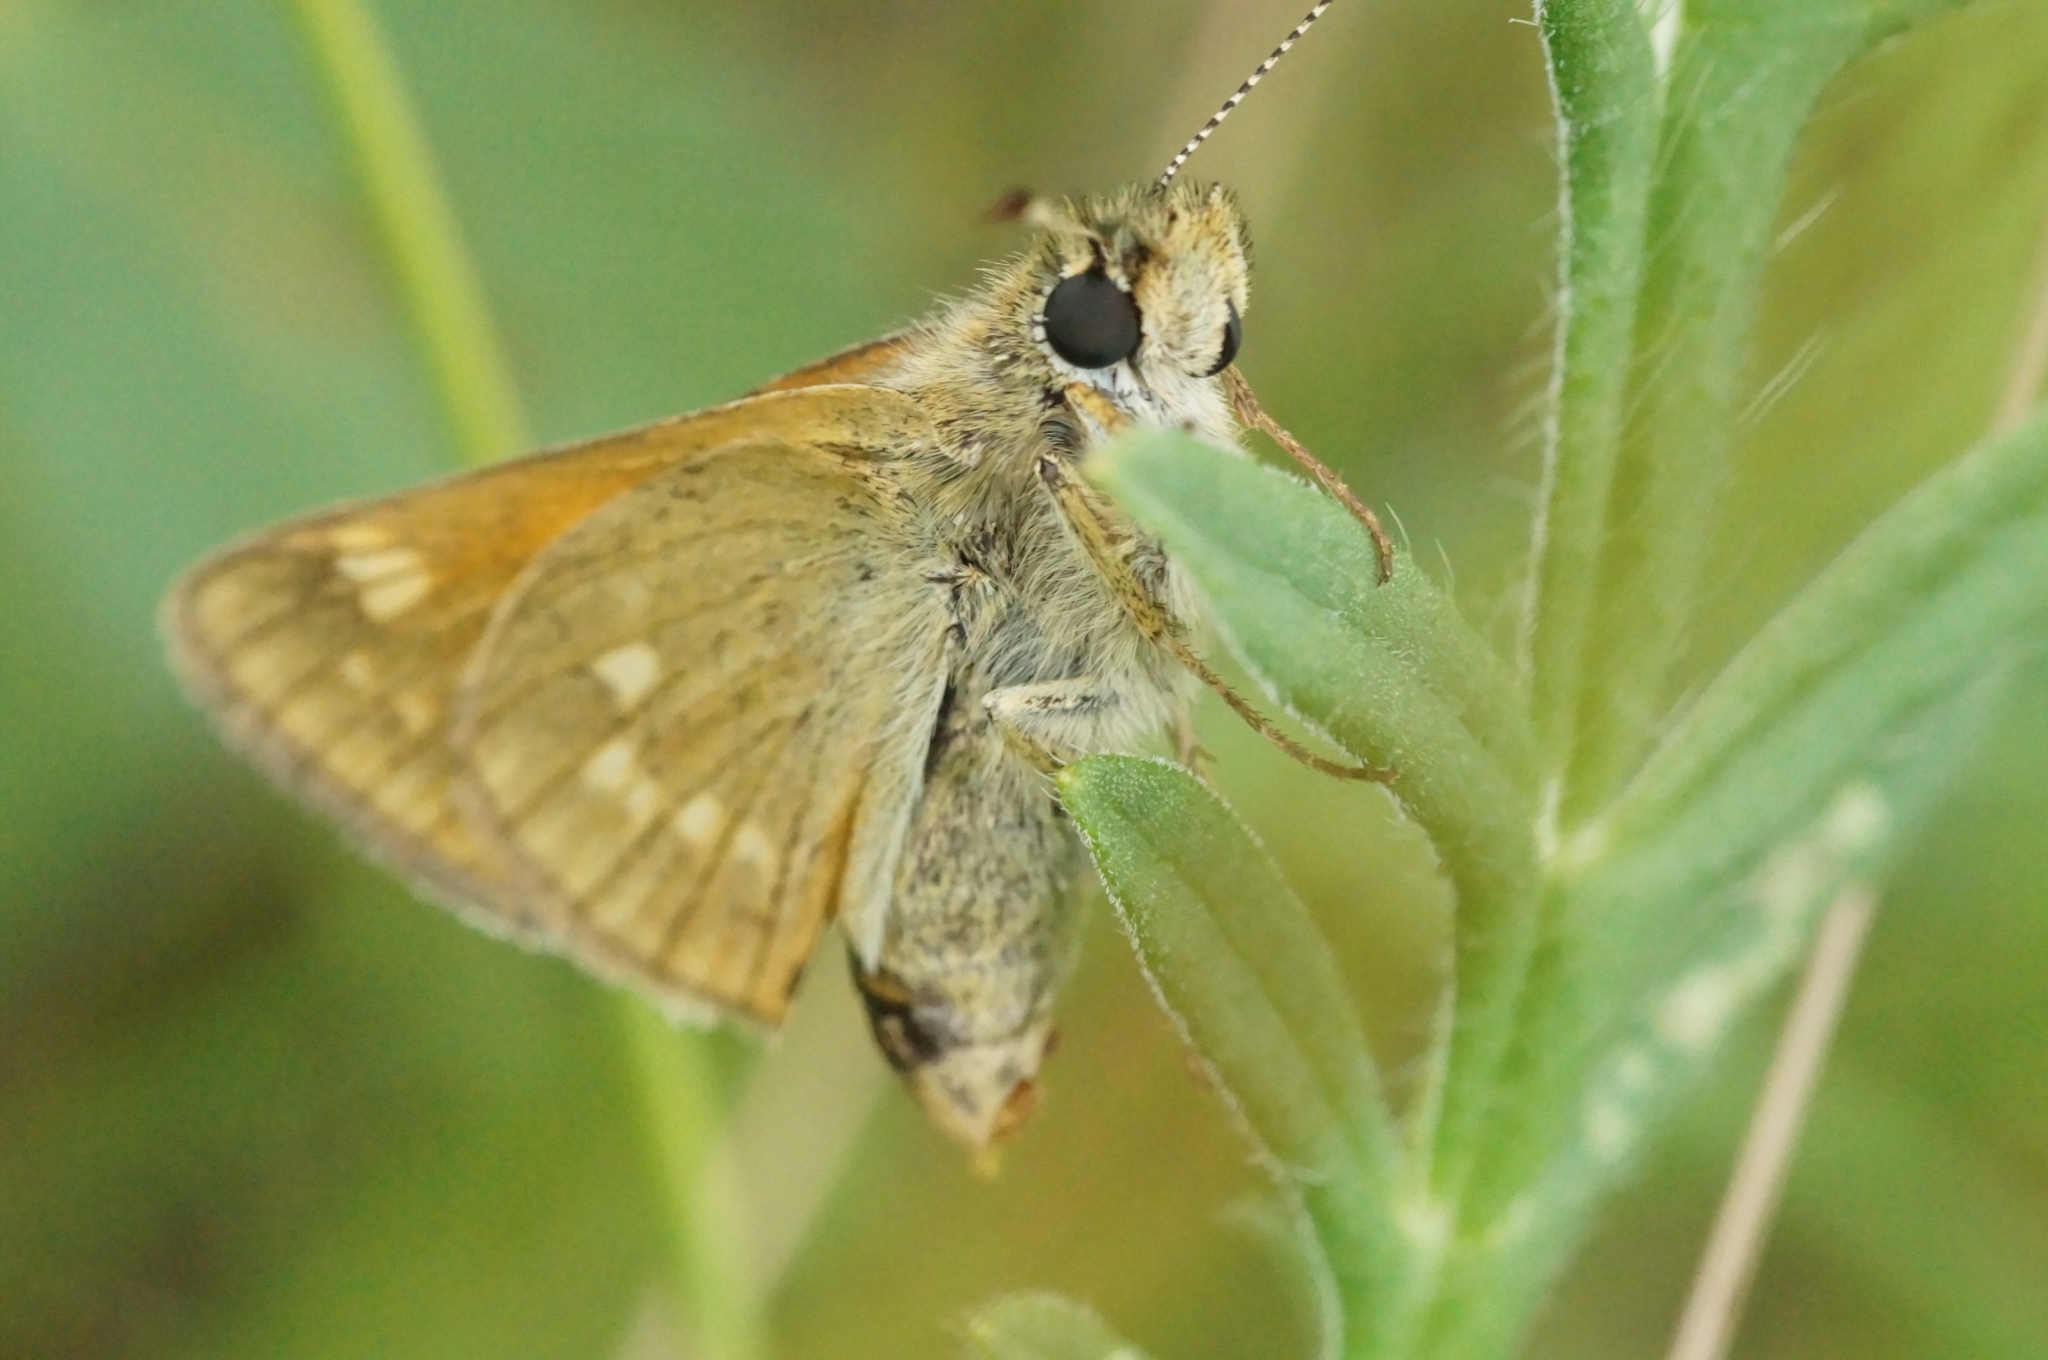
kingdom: Animalia
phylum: Arthropoda
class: Insecta
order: Lepidoptera
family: Hesperiidae
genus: Ochlodes
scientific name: Ochlodes venata
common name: Large skipper
